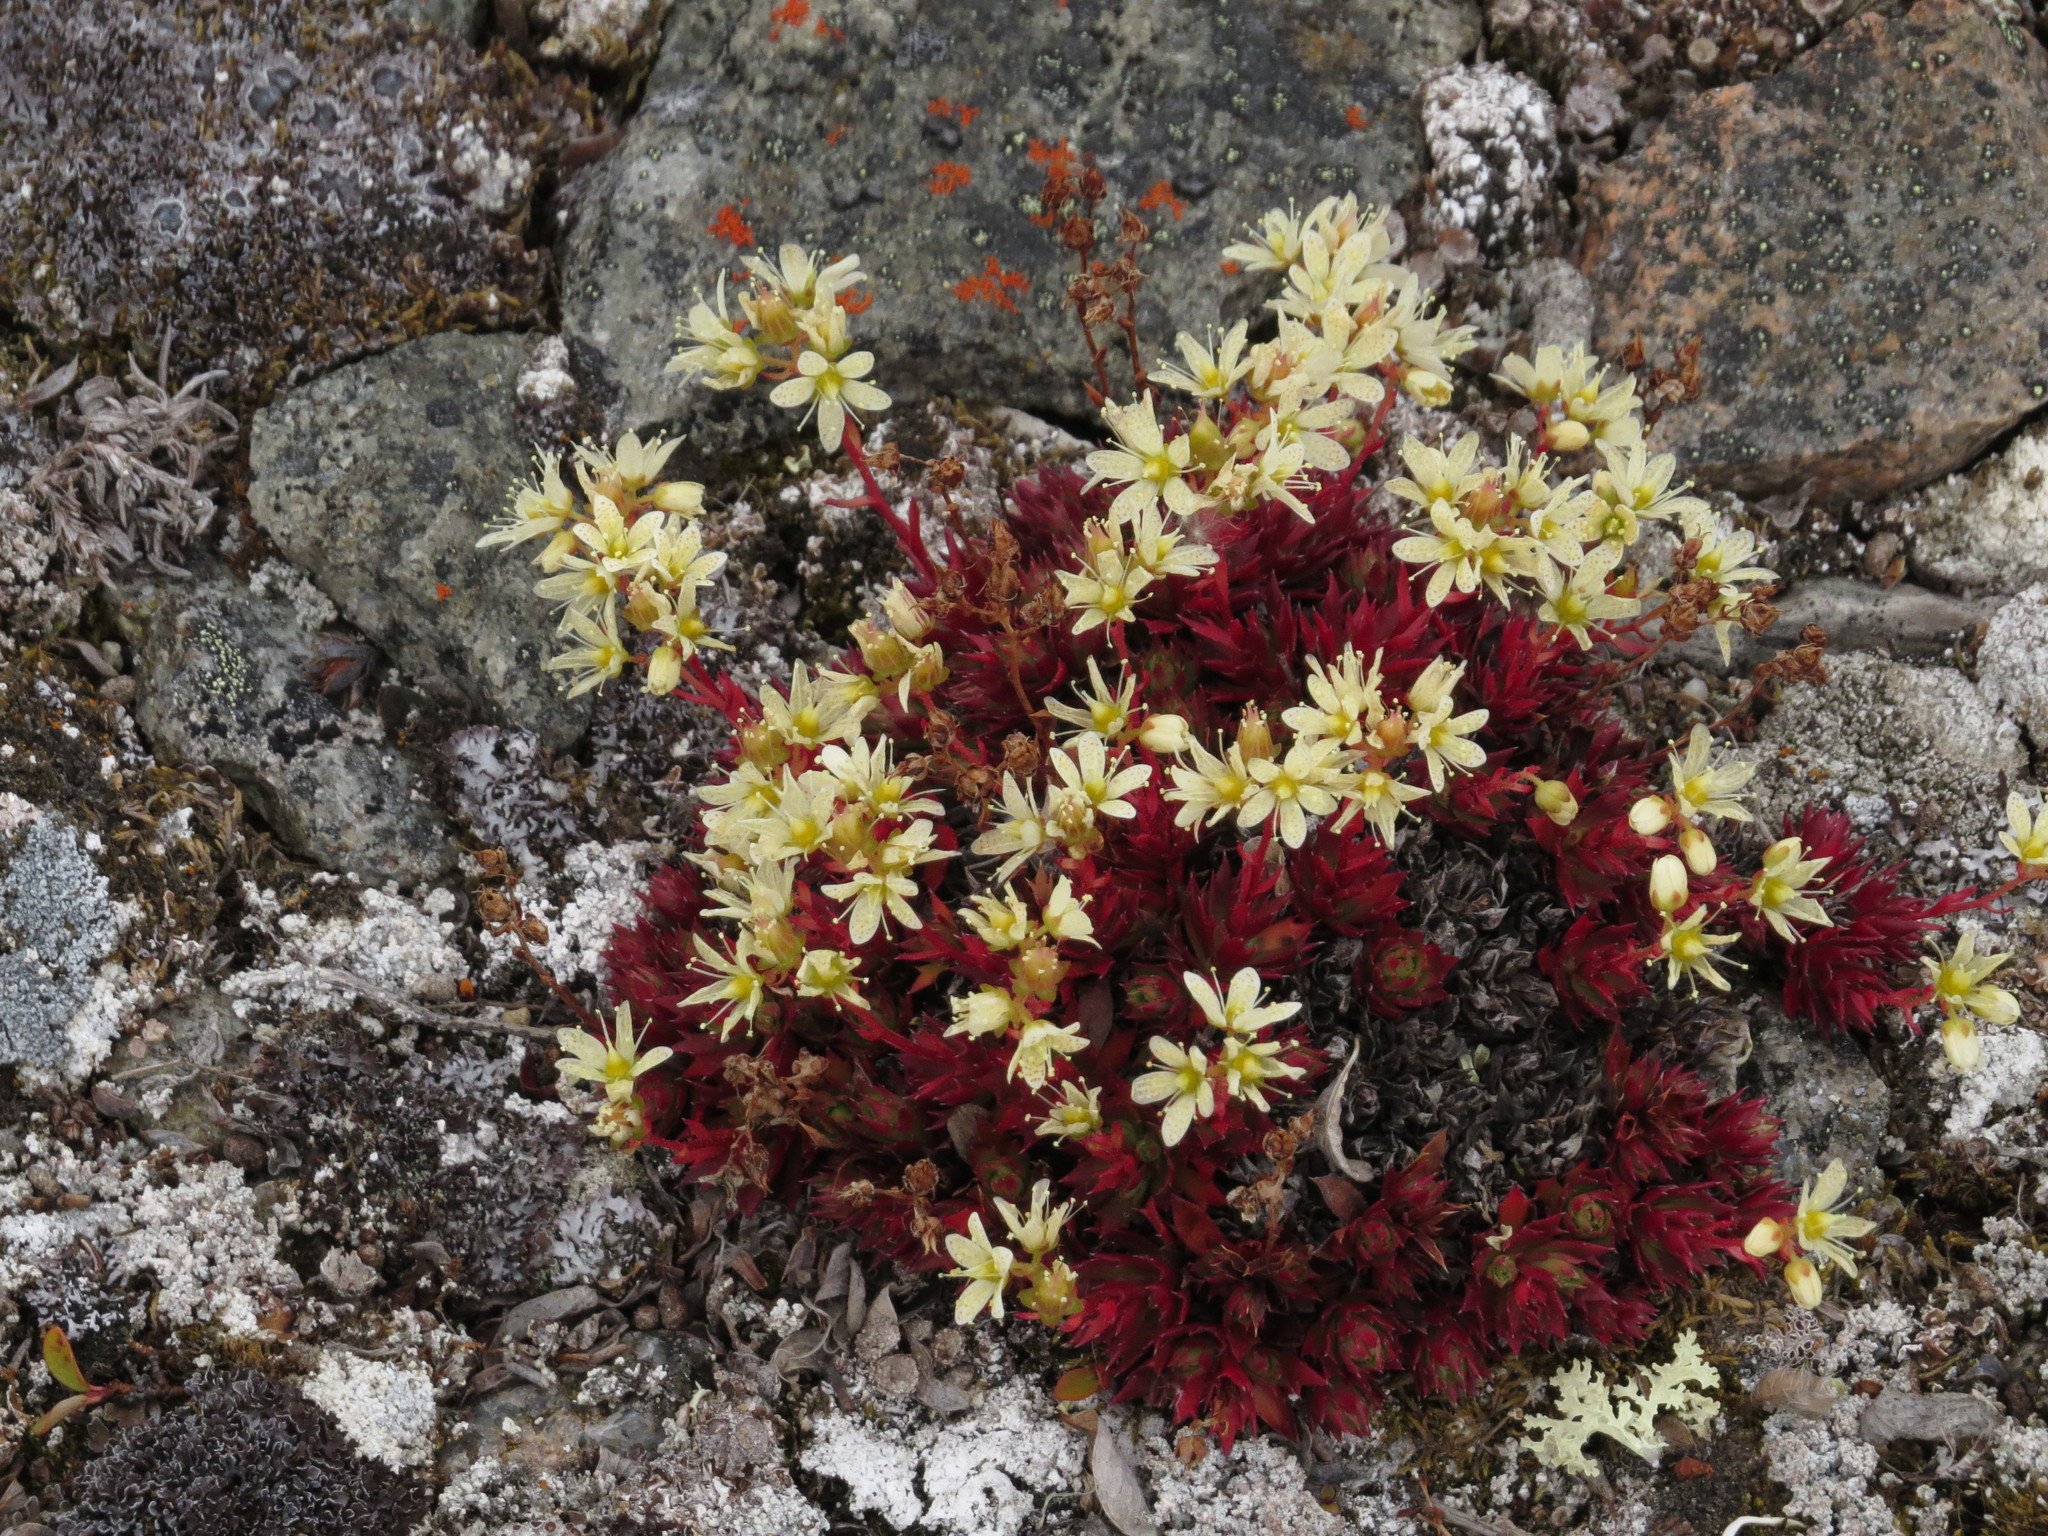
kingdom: Plantae
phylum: Tracheophyta
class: Magnoliopsida
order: Saxifragales
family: Saxifragaceae
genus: Saxifraga
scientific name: Saxifraga tricuspidata
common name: Prickly saxifrage
